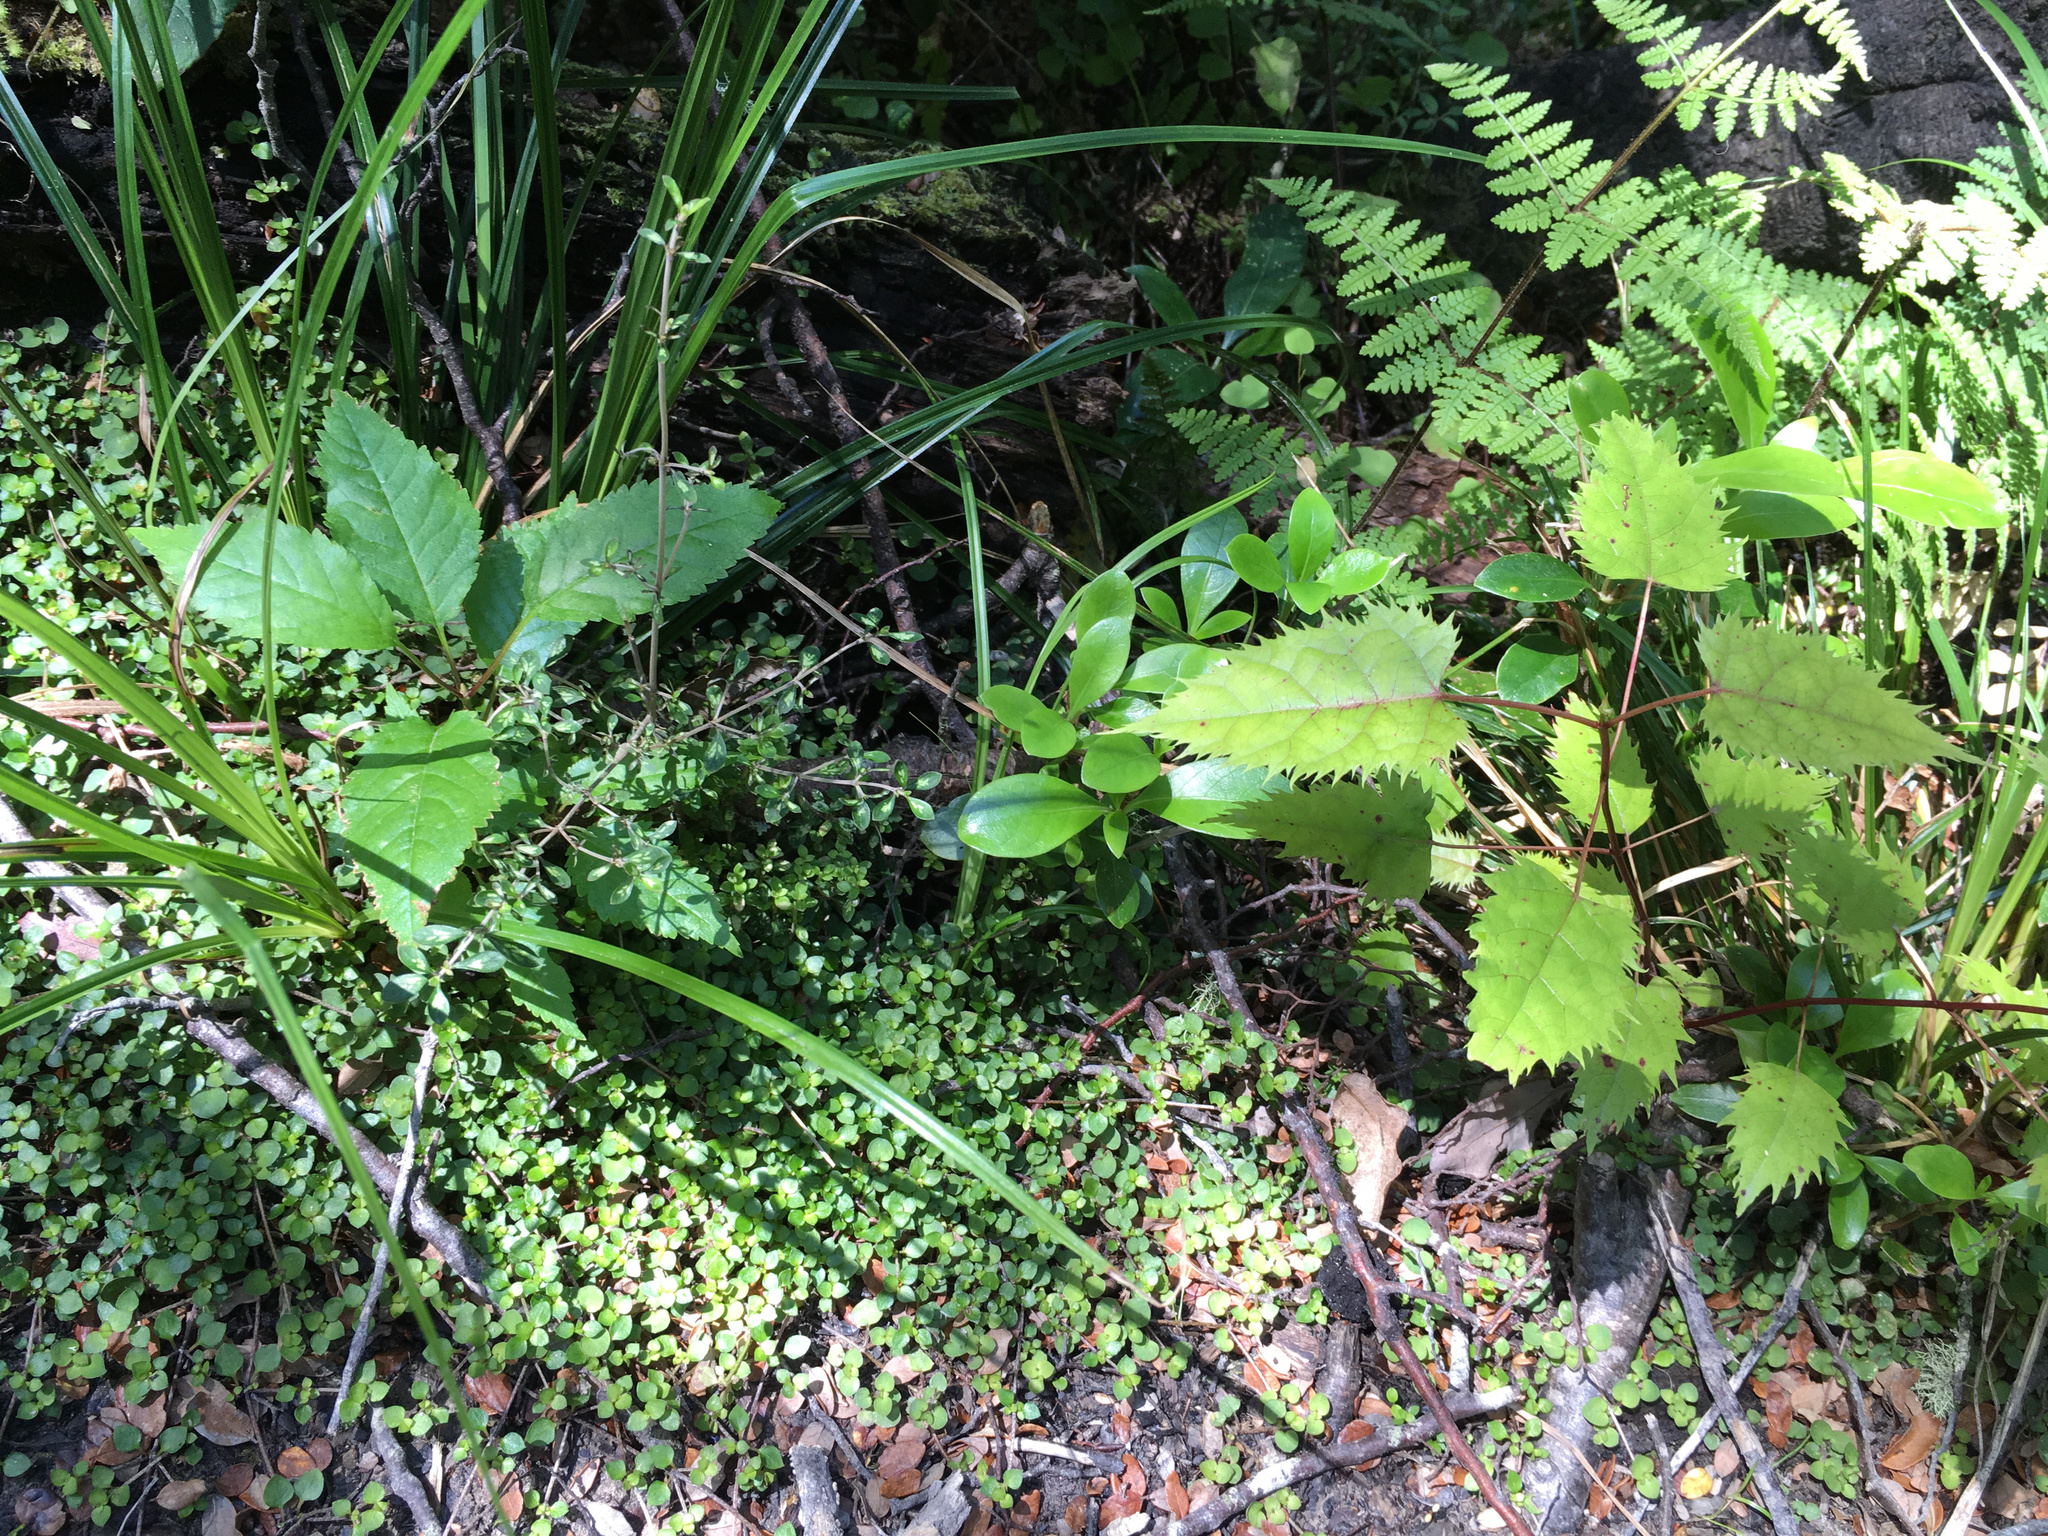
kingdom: Plantae
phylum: Tracheophyta
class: Magnoliopsida
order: Oxalidales
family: Elaeocarpaceae
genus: Aristotelia
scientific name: Aristotelia serrata
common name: New zealand wineberry
